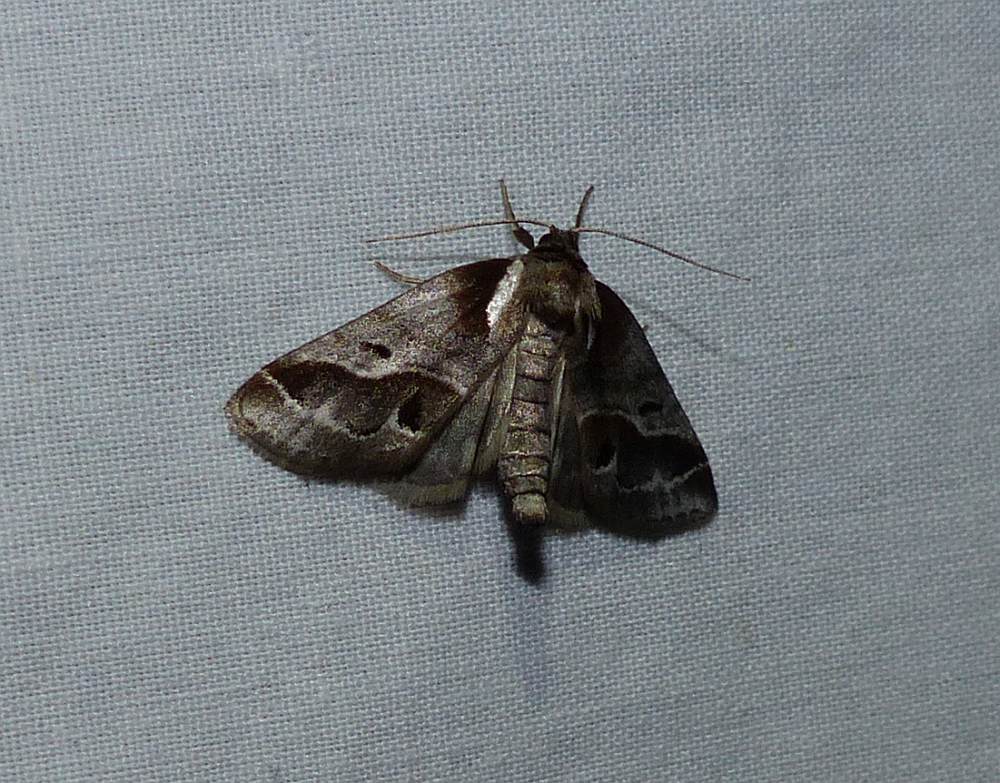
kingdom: Animalia
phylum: Arthropoda
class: Insecta
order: Lepidoptera
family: Nolidae
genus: Baileya
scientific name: Baileya doubledayi
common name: Doubleday's baileya moth
